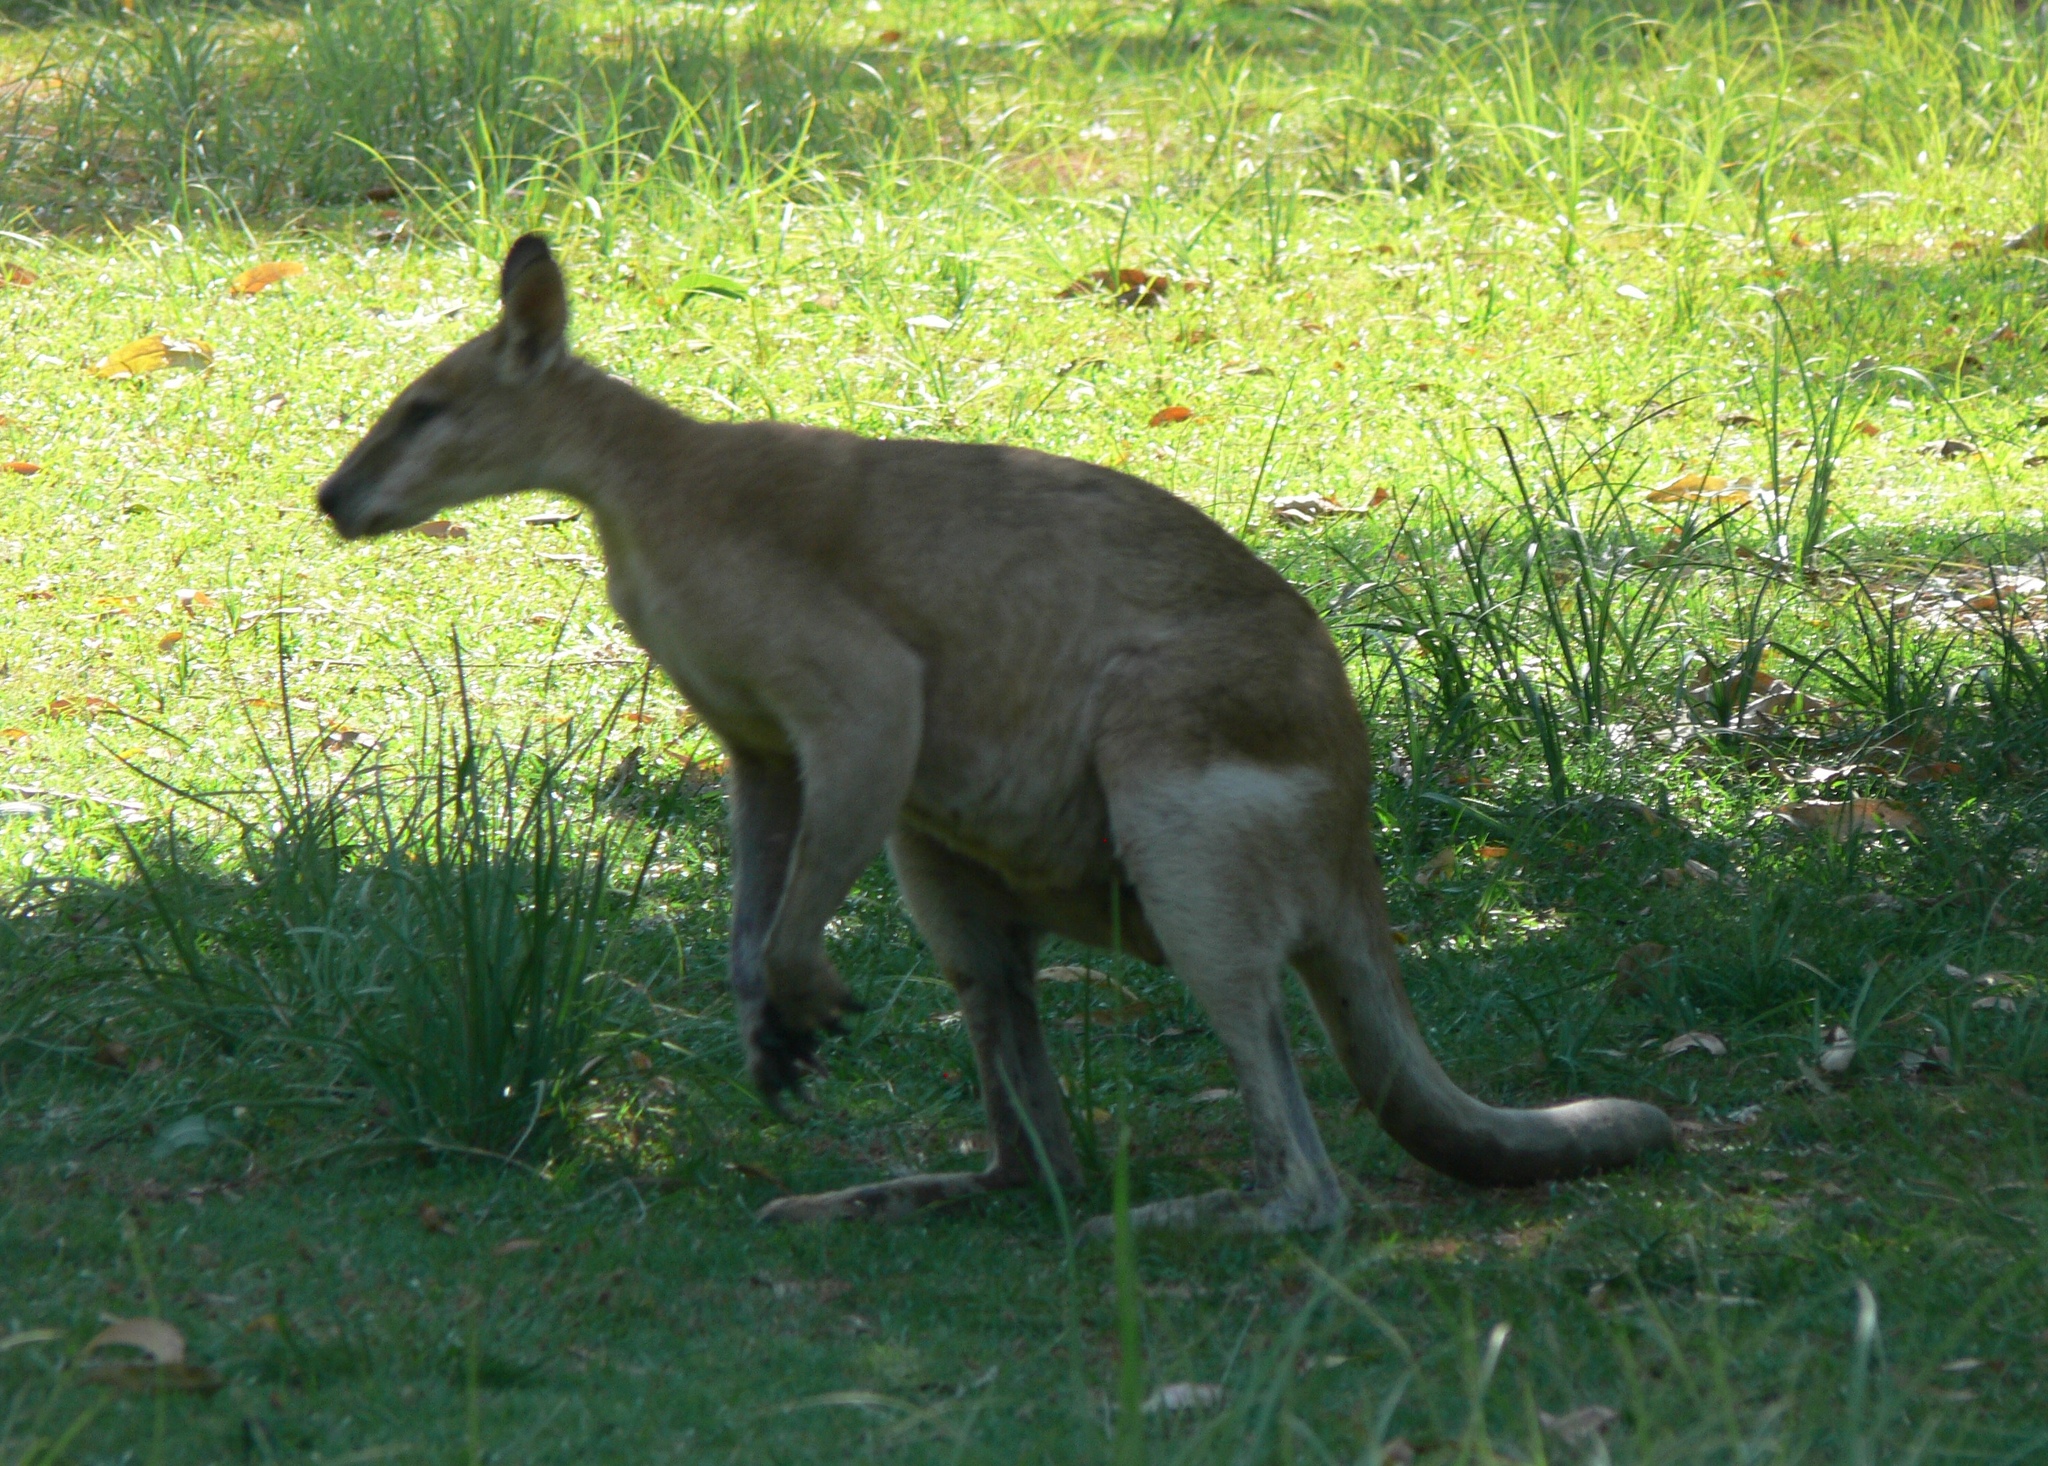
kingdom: Animalia
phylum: Chordata
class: Mammalia
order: Diprotodontia
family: Macropodidae
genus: Macropus
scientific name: Macropus agilis
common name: Agile wallaby
